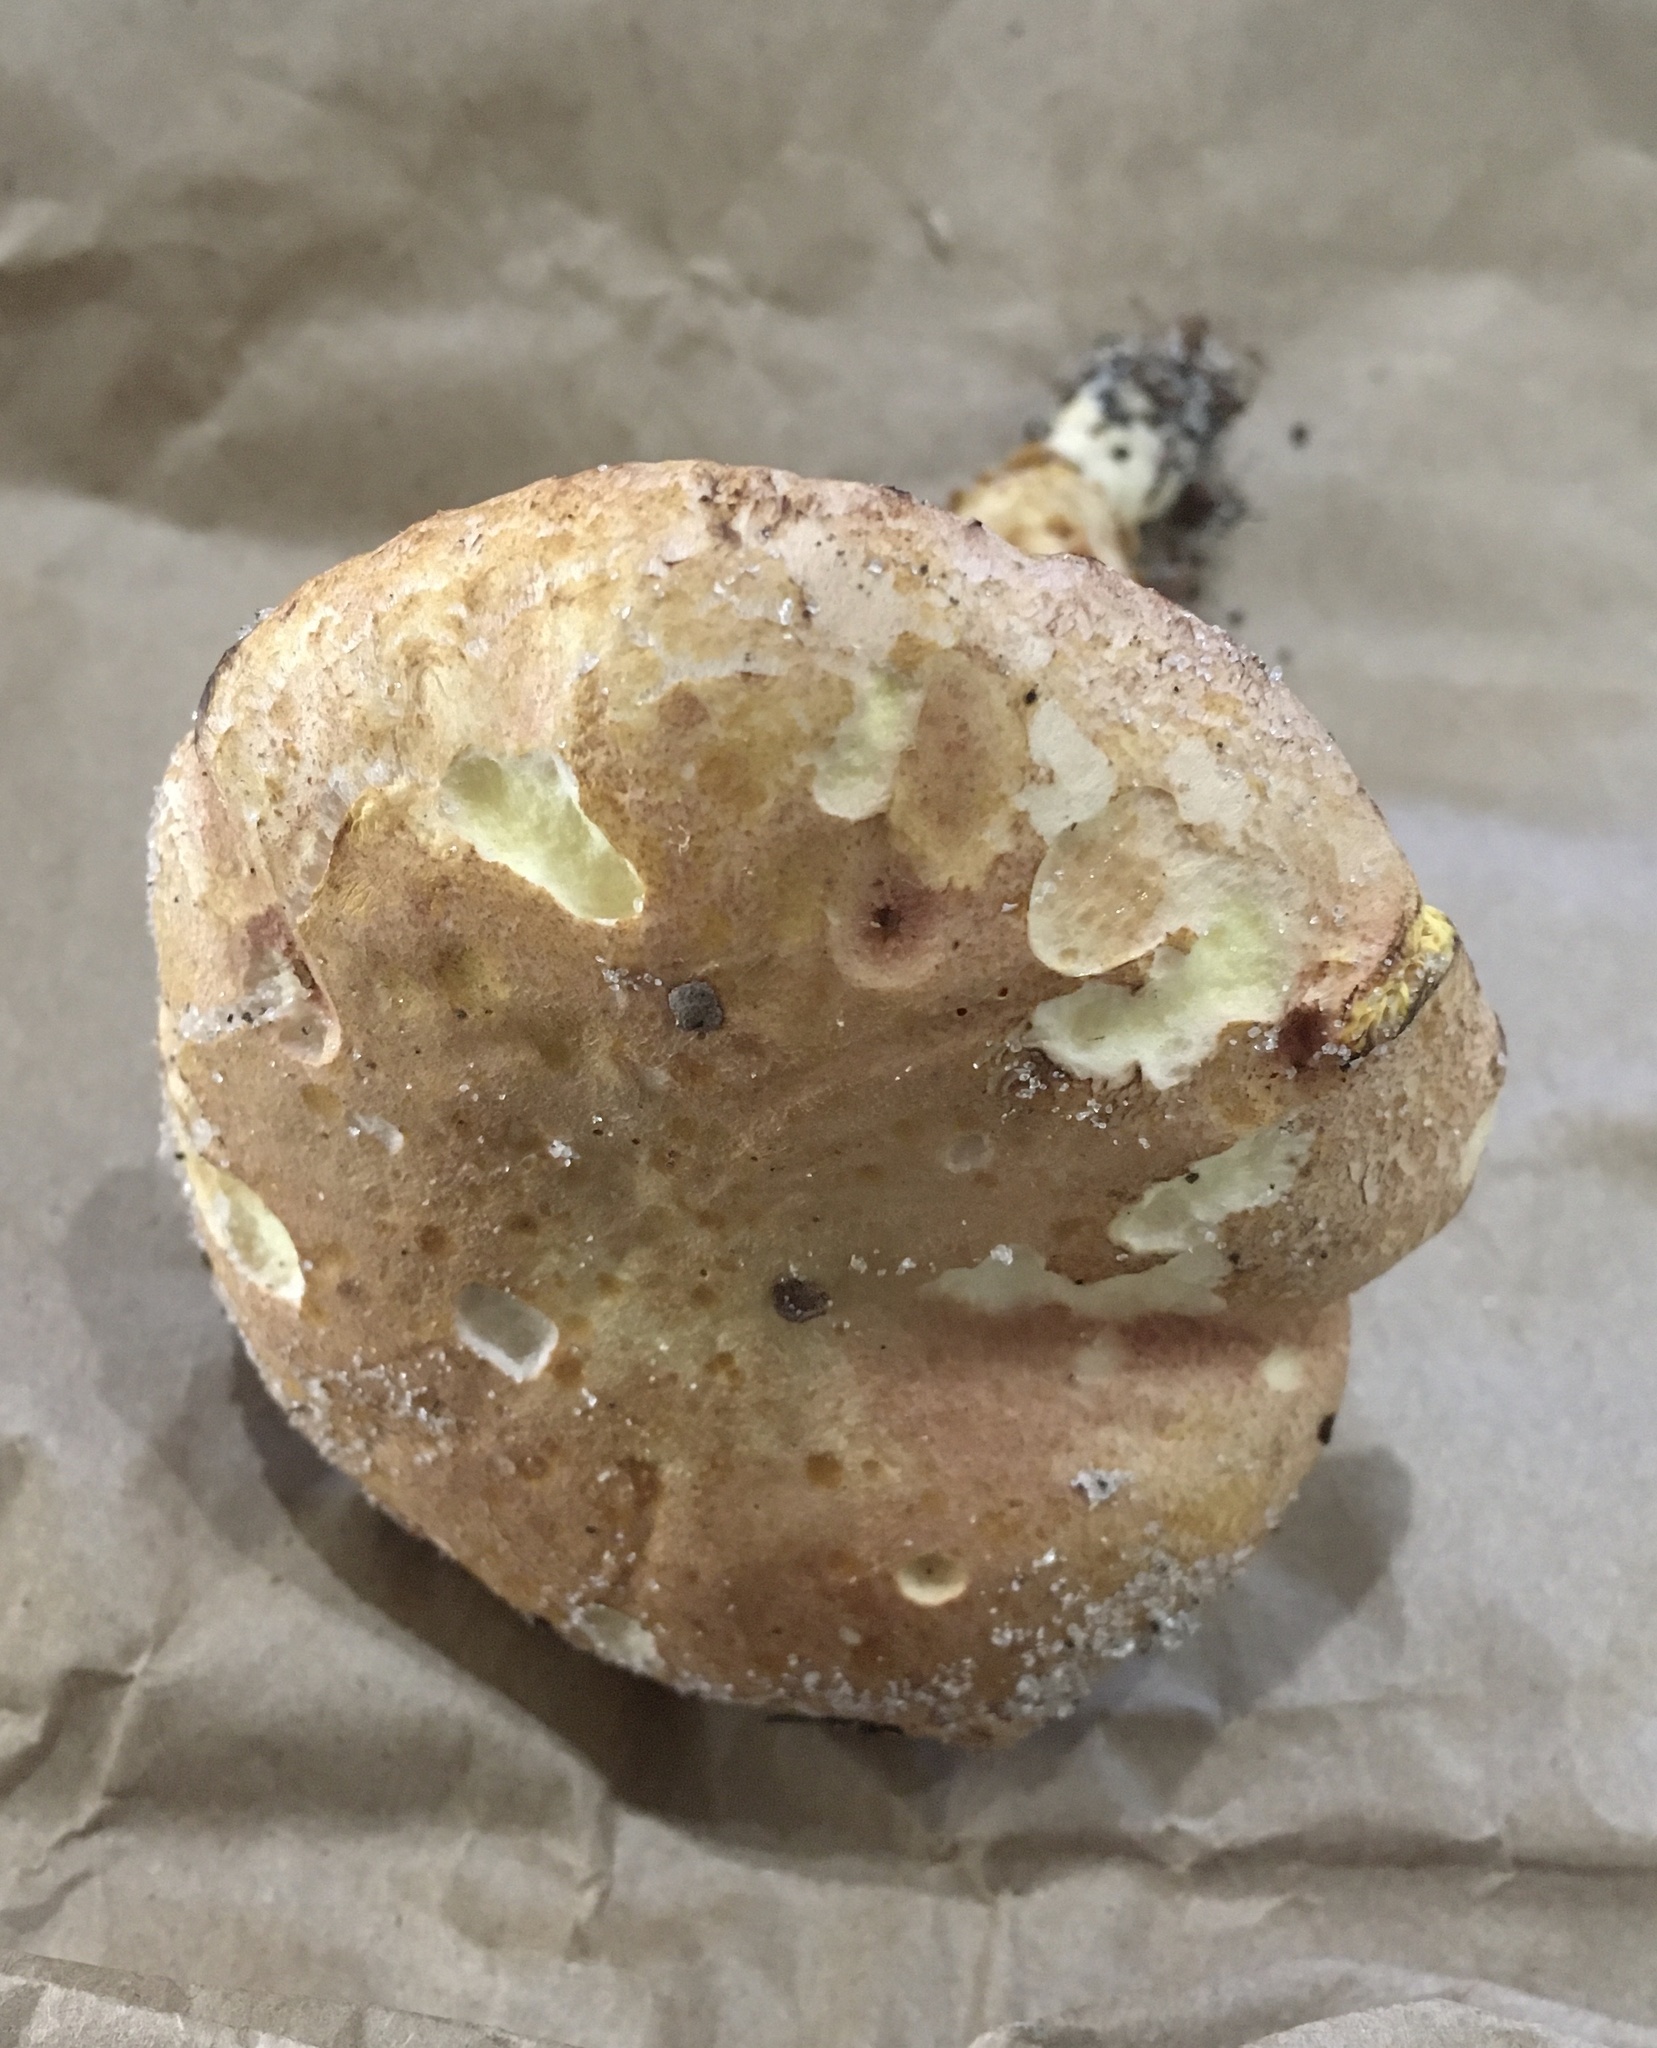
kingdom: Fungi
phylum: Basidiomycota
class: Agaricomycetes
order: Boletales
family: Boletaceae
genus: Phylloporus
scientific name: Phylloporus rhodoxanthus
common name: Golden gilled bolete
